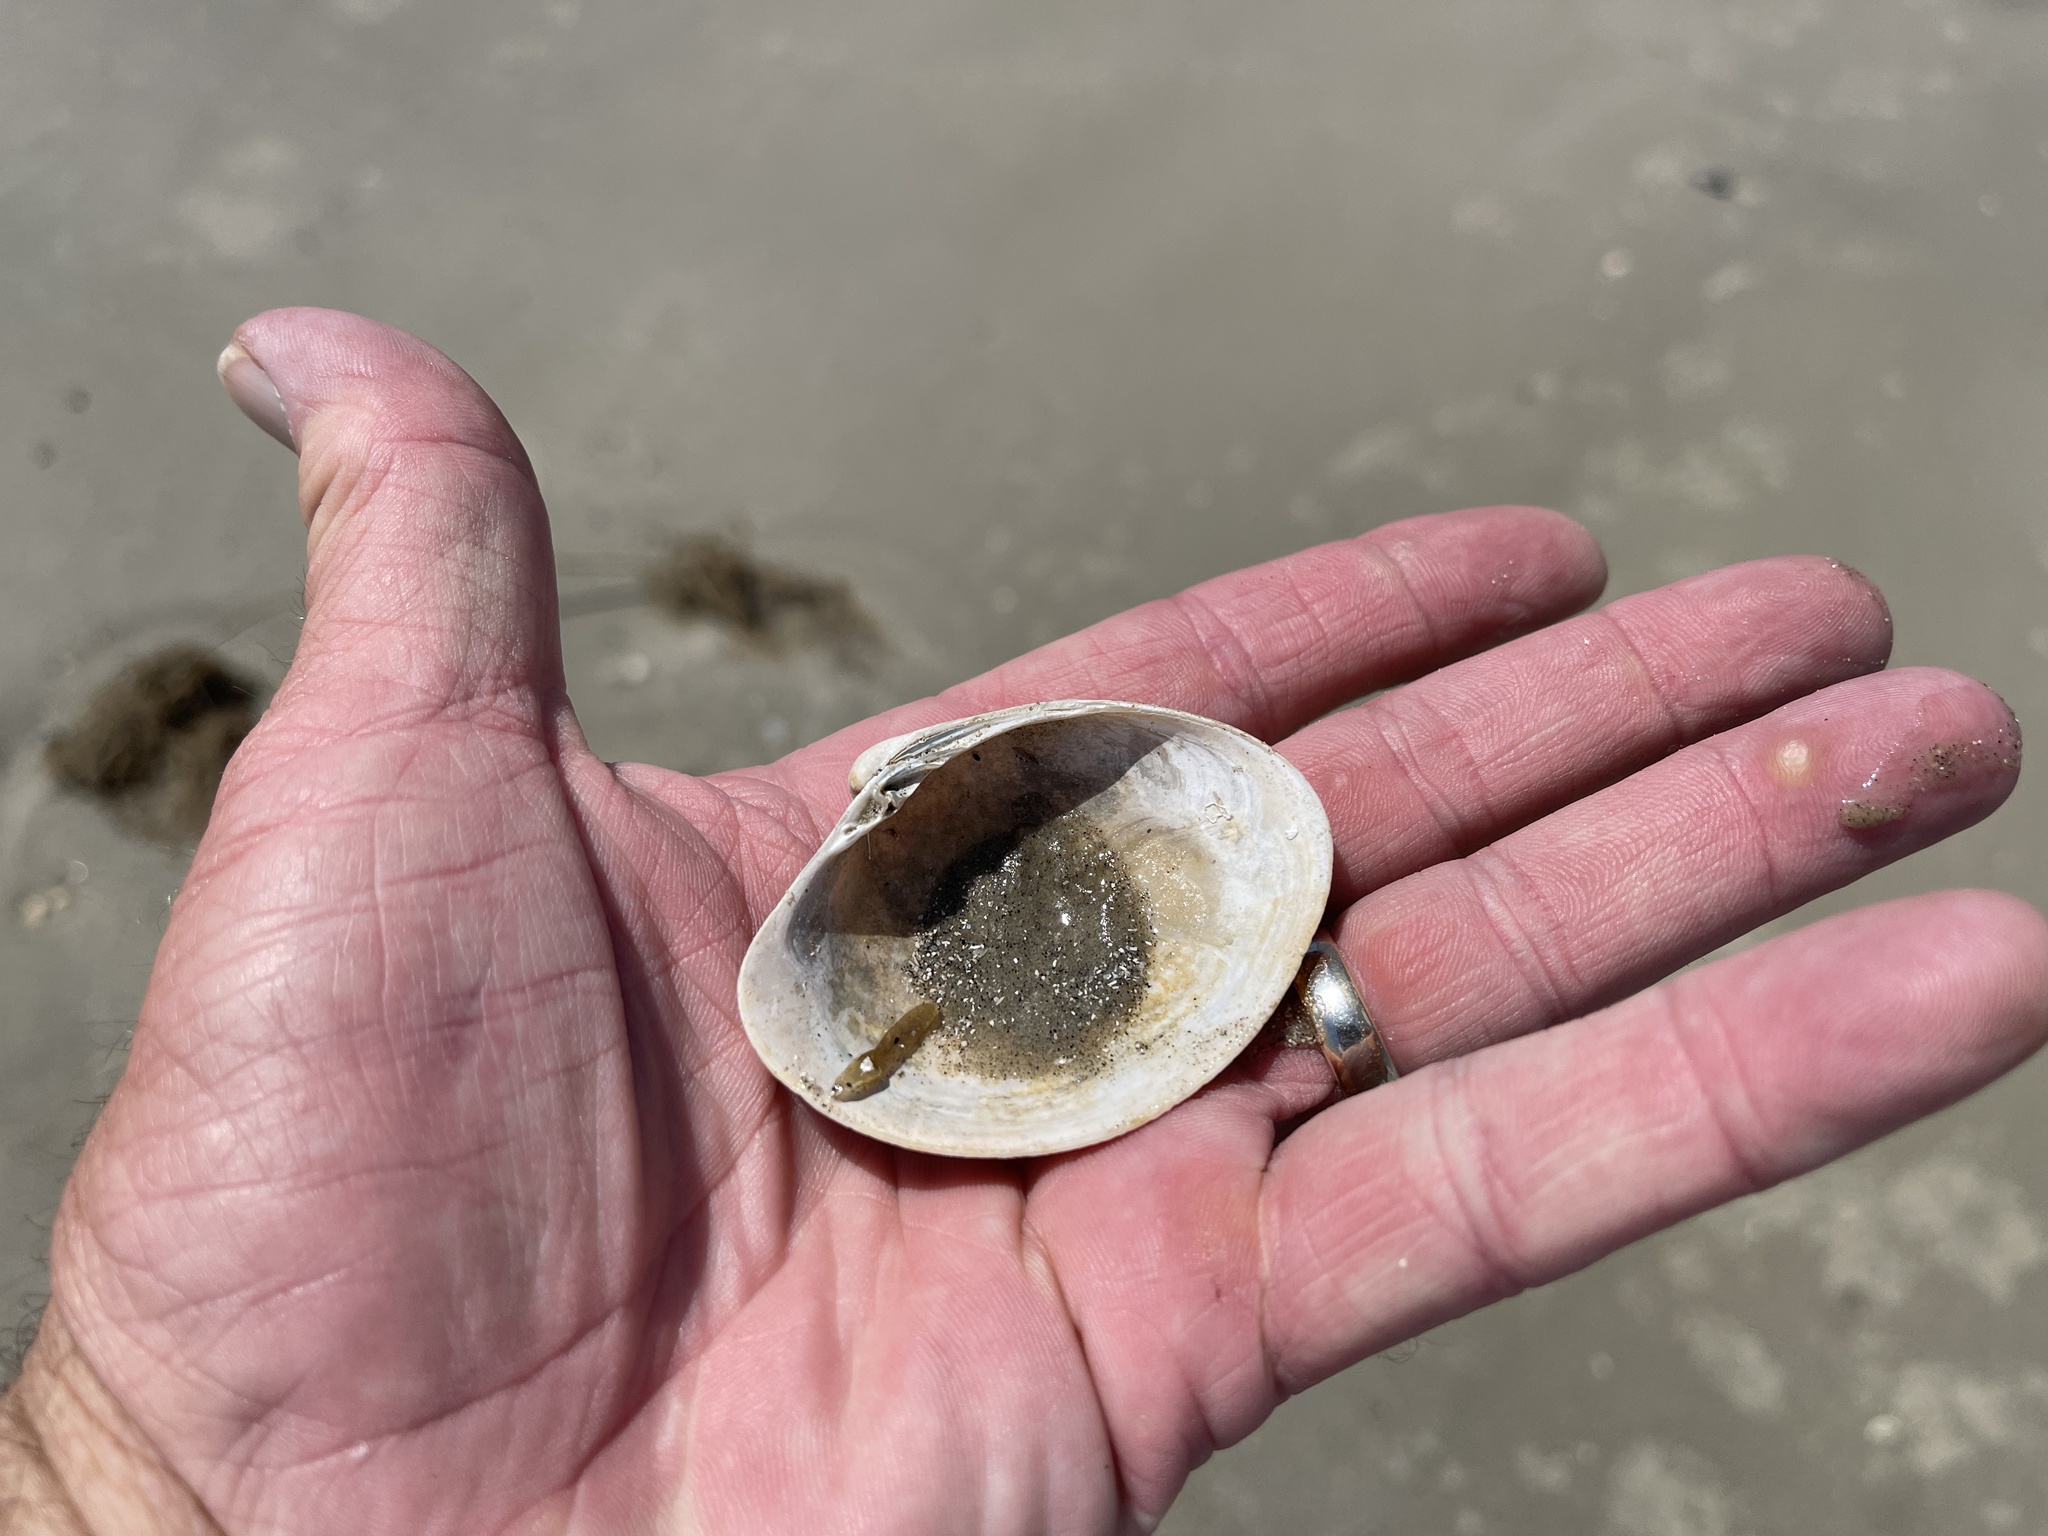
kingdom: Animalia
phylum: Mollusca
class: Bivalvia
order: Venerida
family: Veneridae
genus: Agriopoma
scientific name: Agriopoma texasianum
